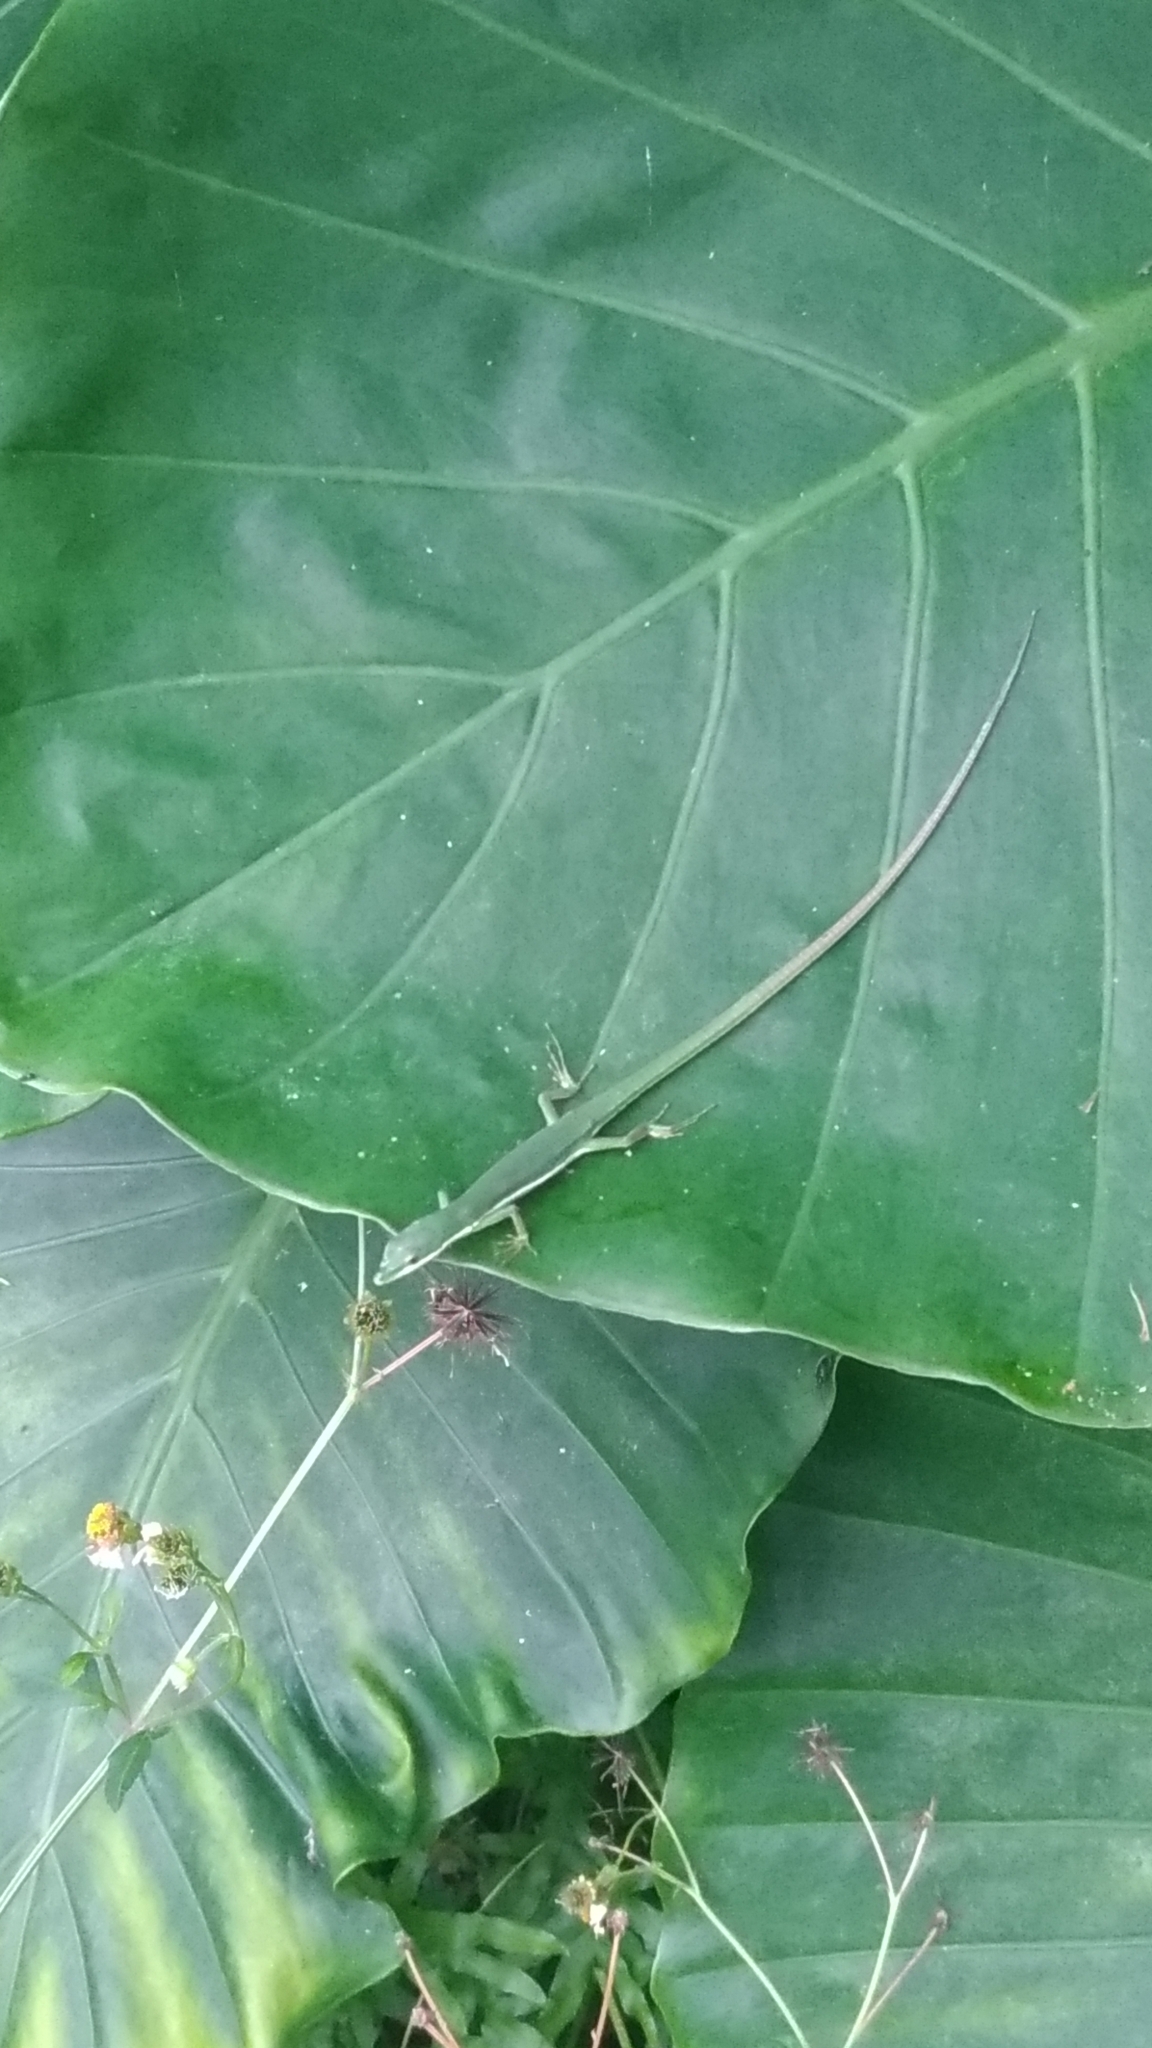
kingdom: Animalia
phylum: Chordata
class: Squamata
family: Lacertidae
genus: Takydromus
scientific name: Takydromus smaragdinus
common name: Green grass lizard
